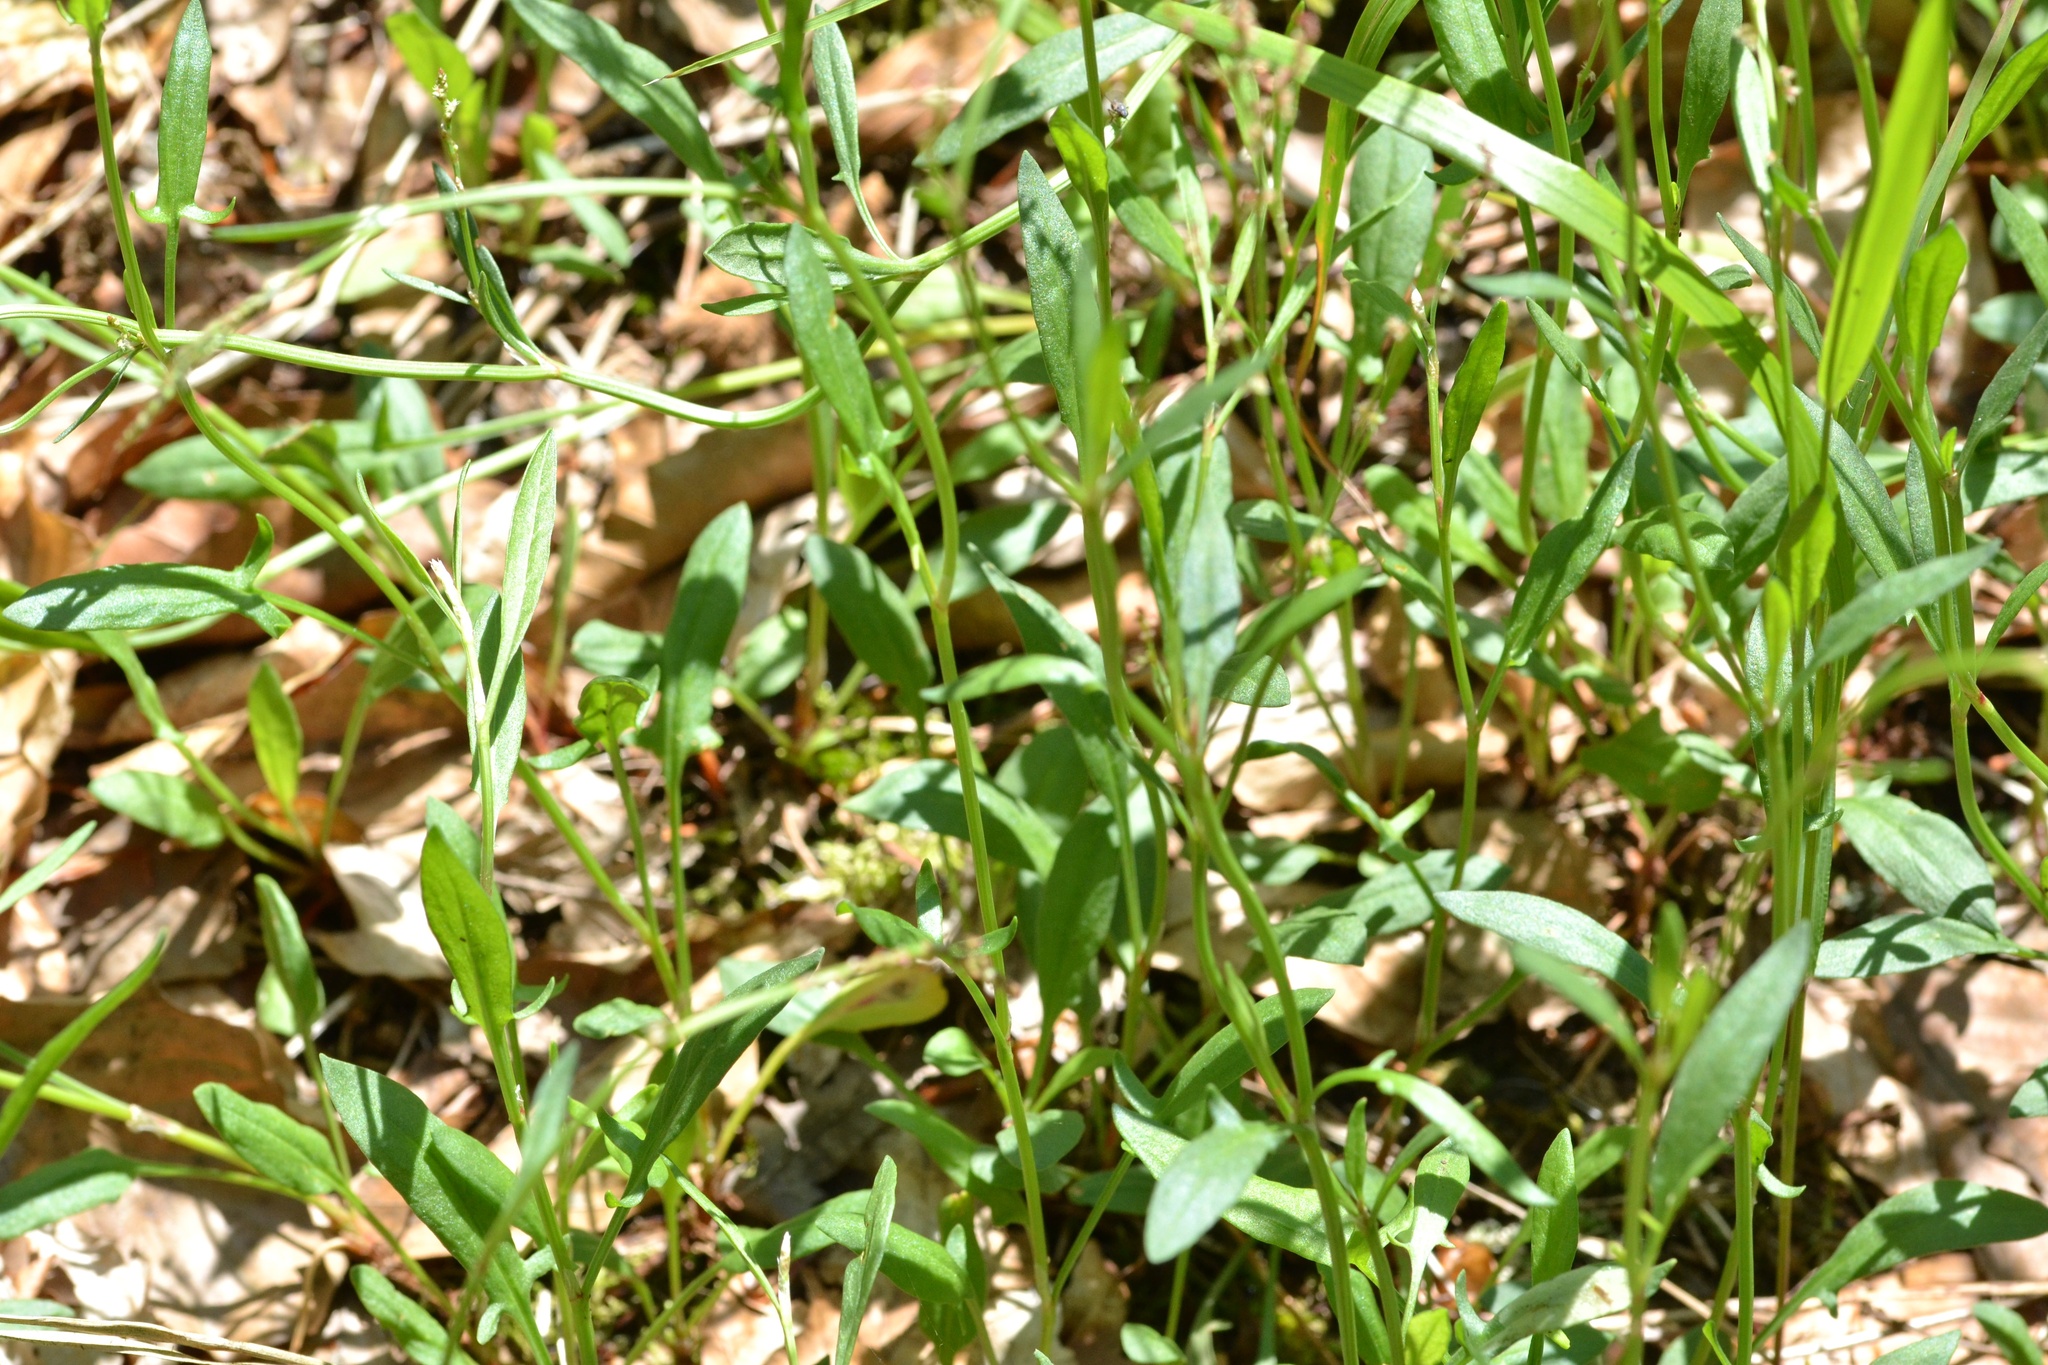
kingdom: Plantae
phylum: Tracheophyta
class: Magnoliopsida
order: Caryophyllales
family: Polygonaceae
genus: Rumex
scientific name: Rumex acetosella
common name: Common sheep sorrel
